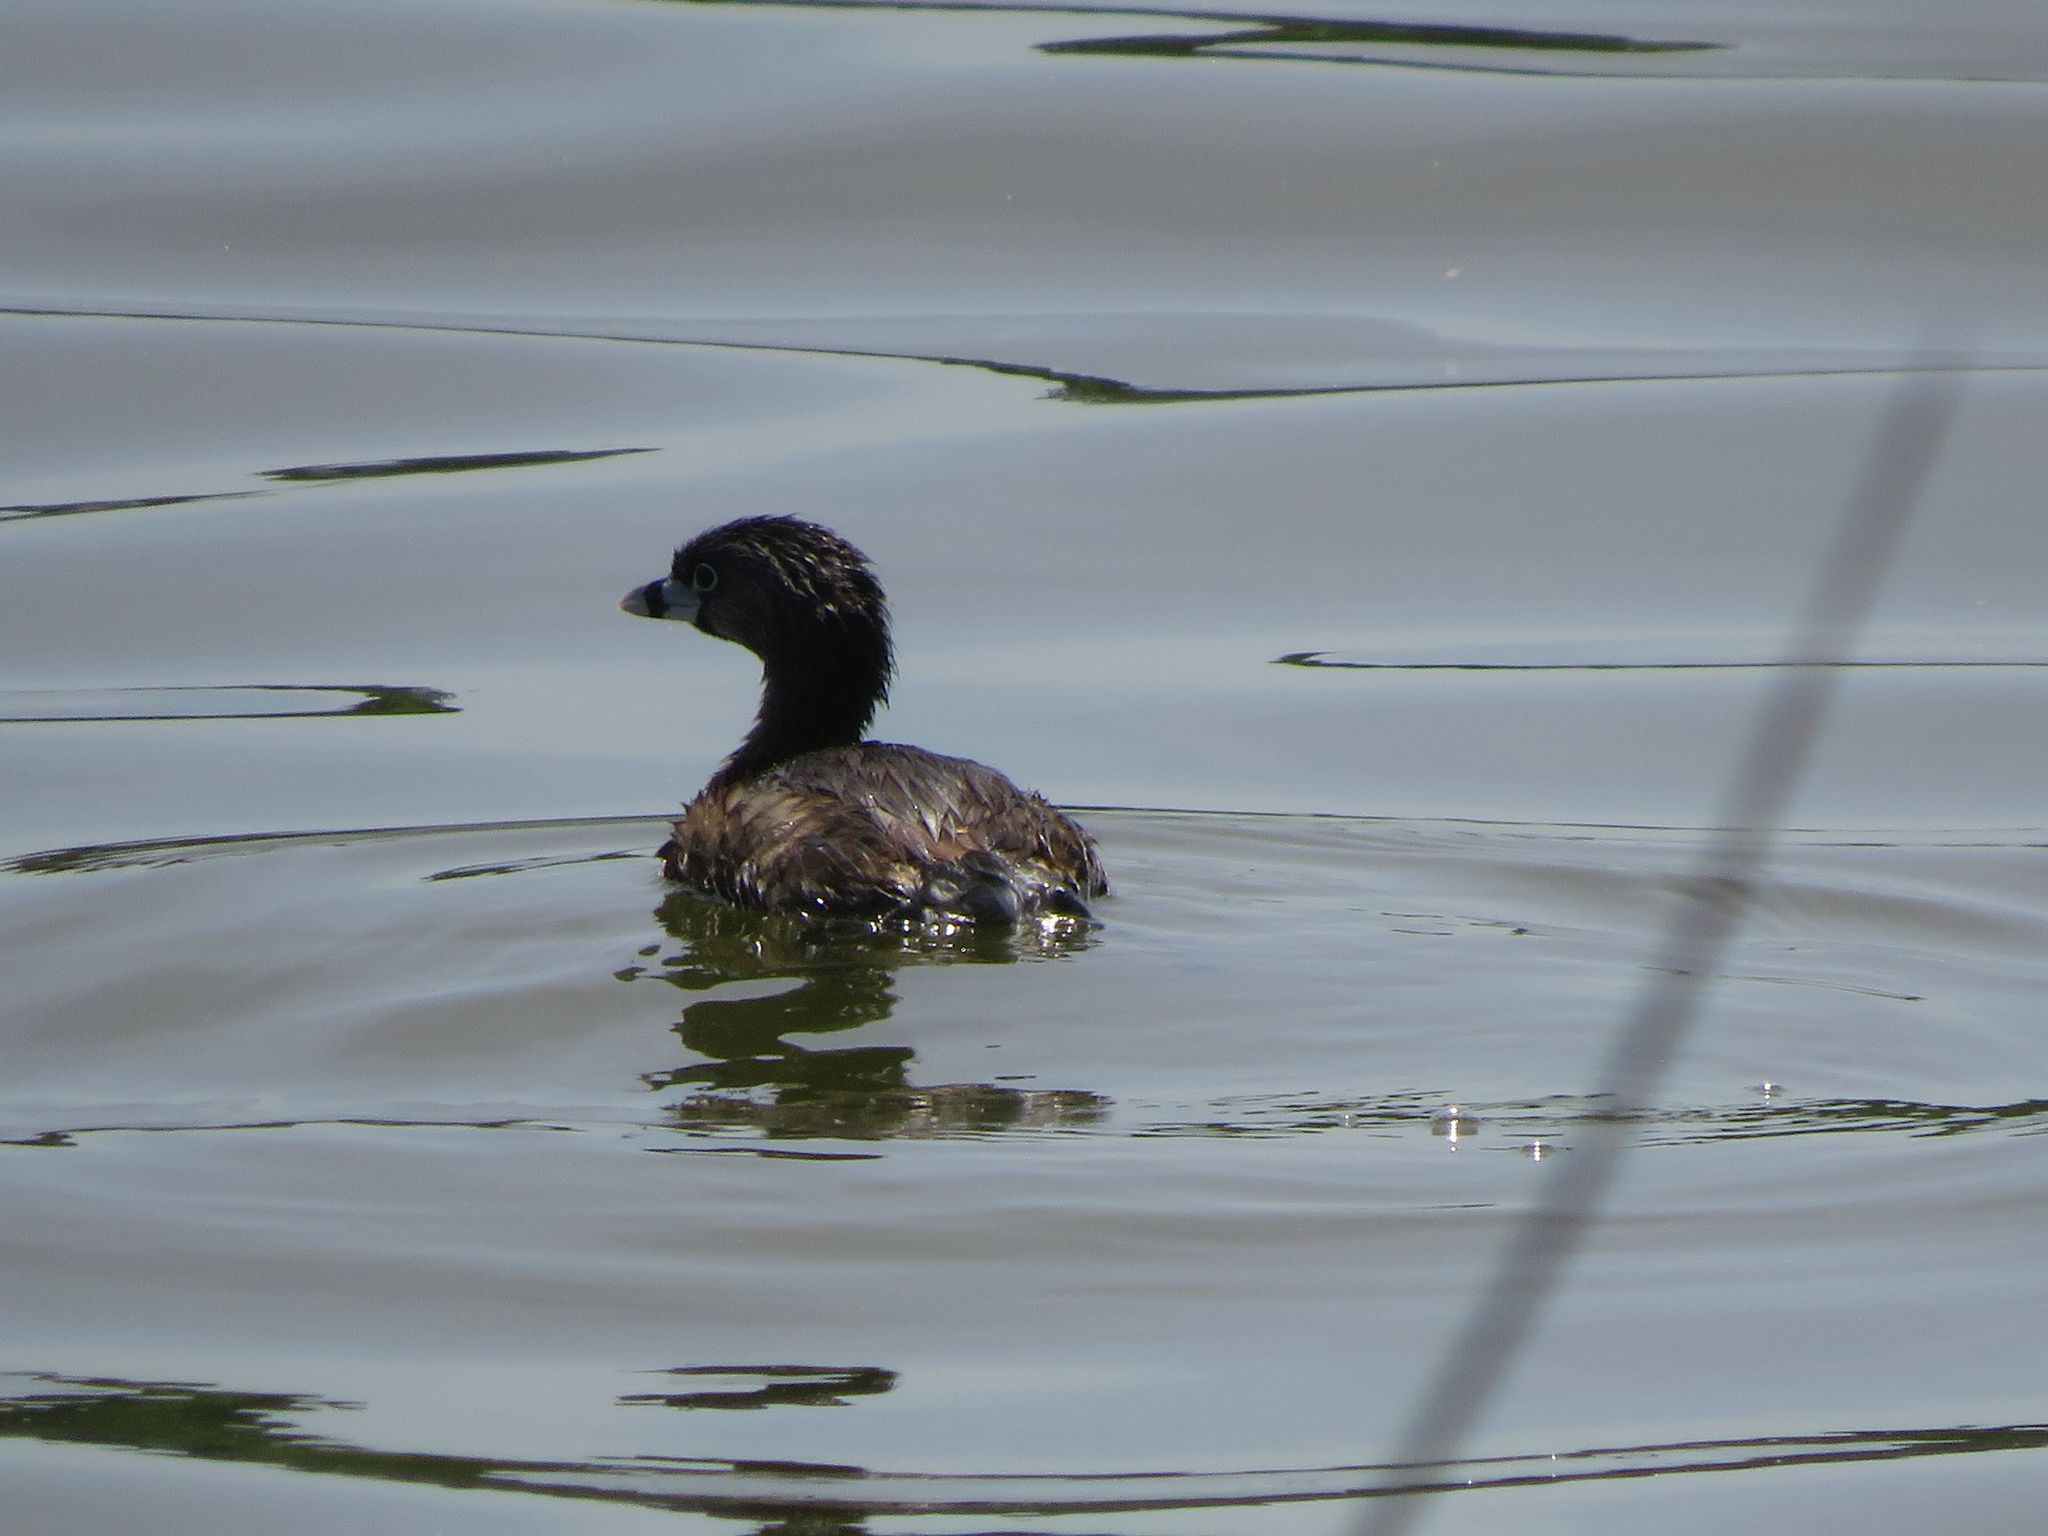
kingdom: Animalia
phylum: Chordata
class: Aves
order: Podicipediformes
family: Podicipedidae
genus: Podilymbus
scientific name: Podilymbus podiceps
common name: Pied-billed grebe
